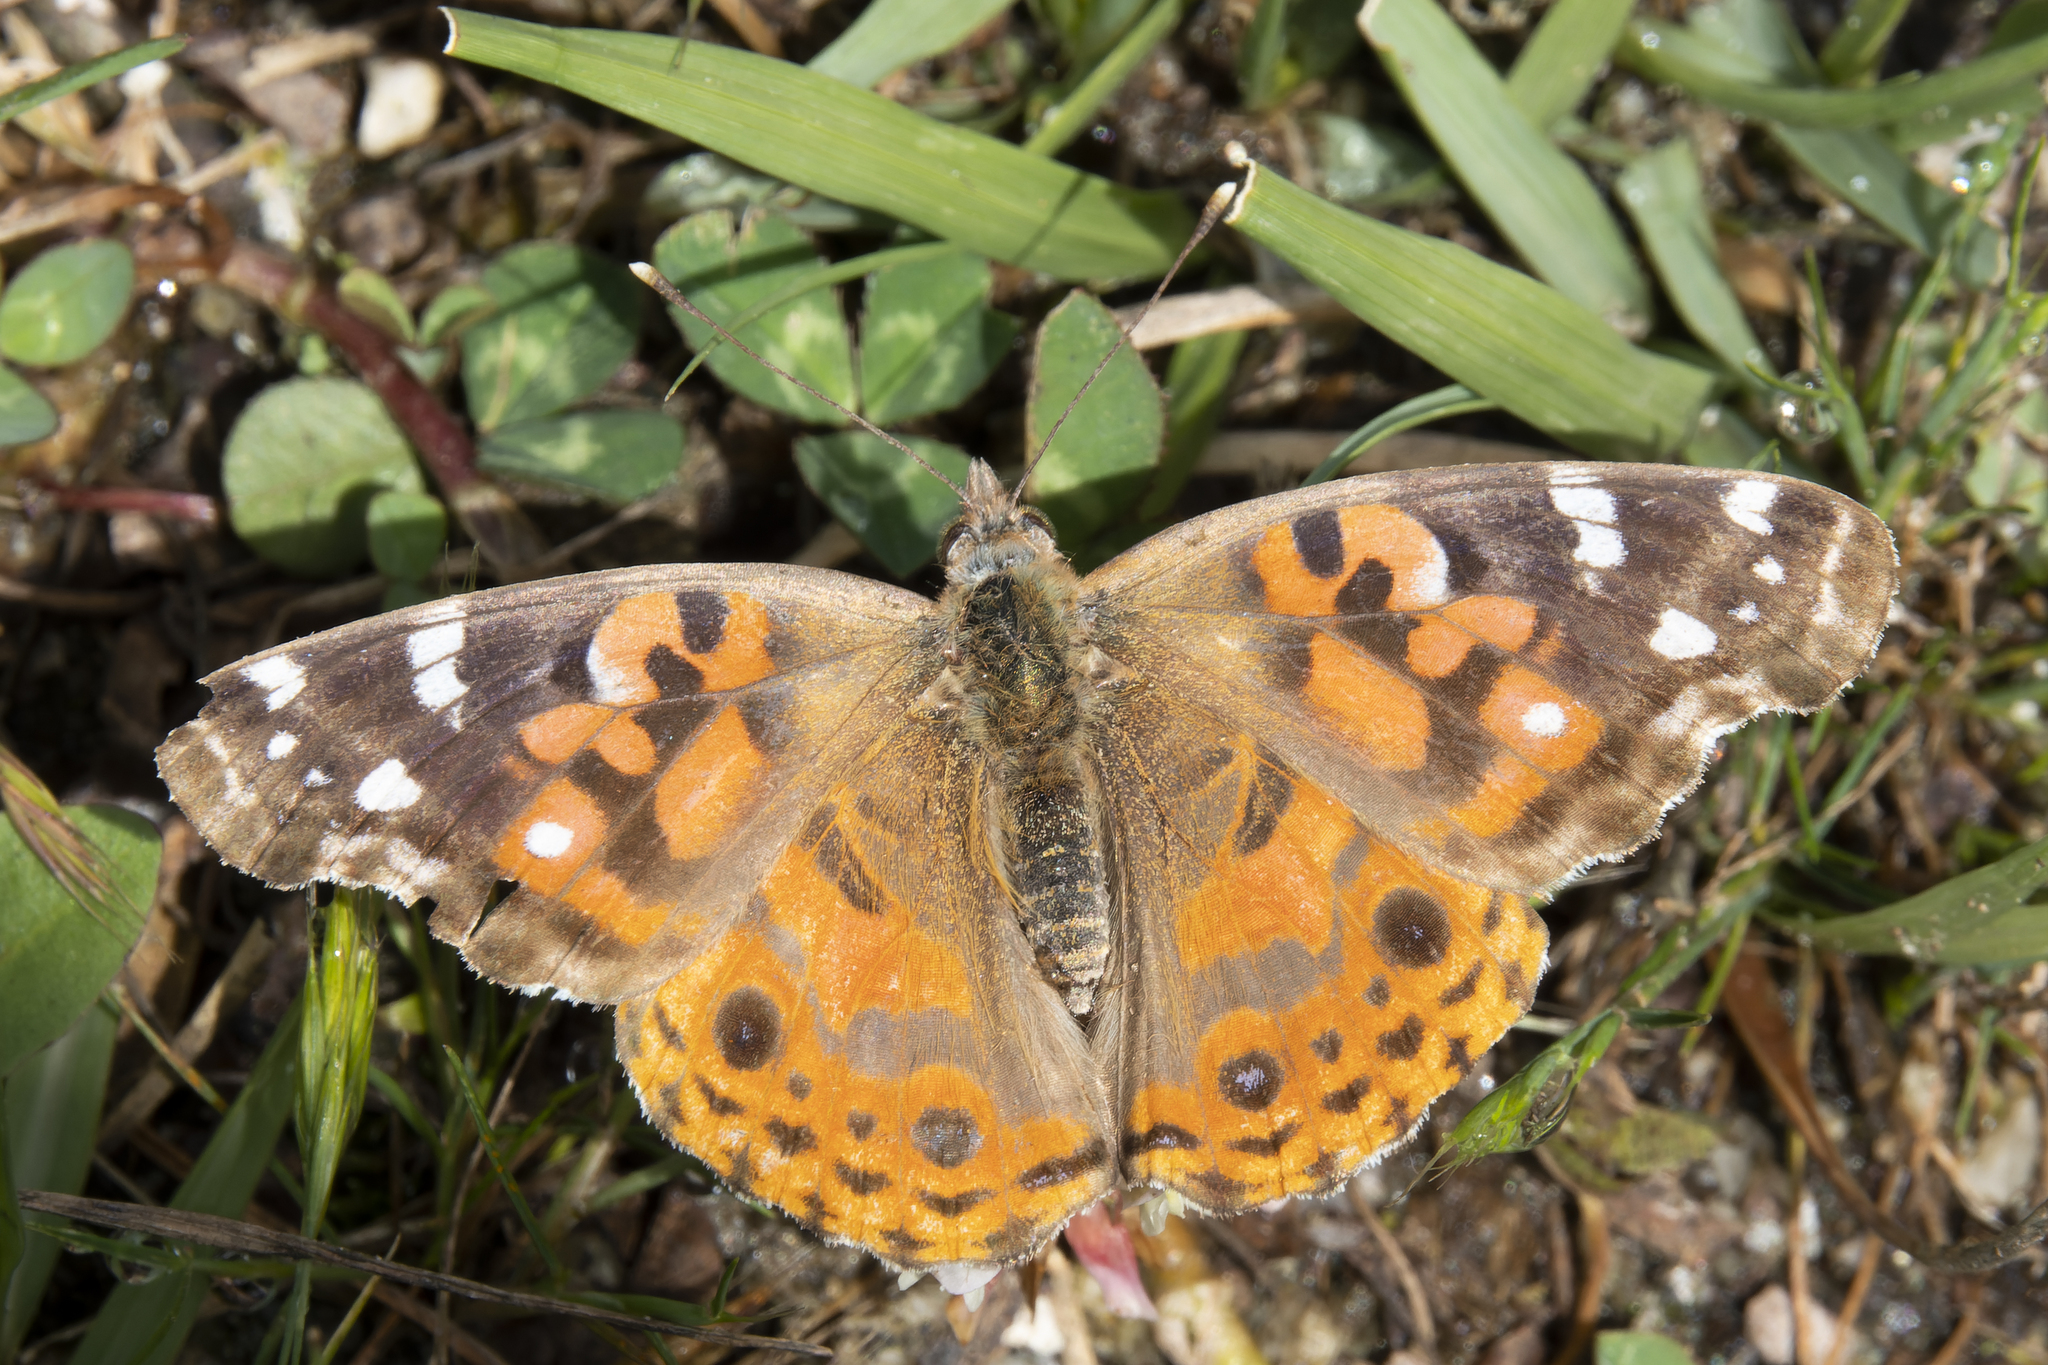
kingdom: Animalia
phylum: Arthropoda
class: Insecta
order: Lepidoptera
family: Nymphalidae
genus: Vanessa
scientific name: Vanessa braziliensis
